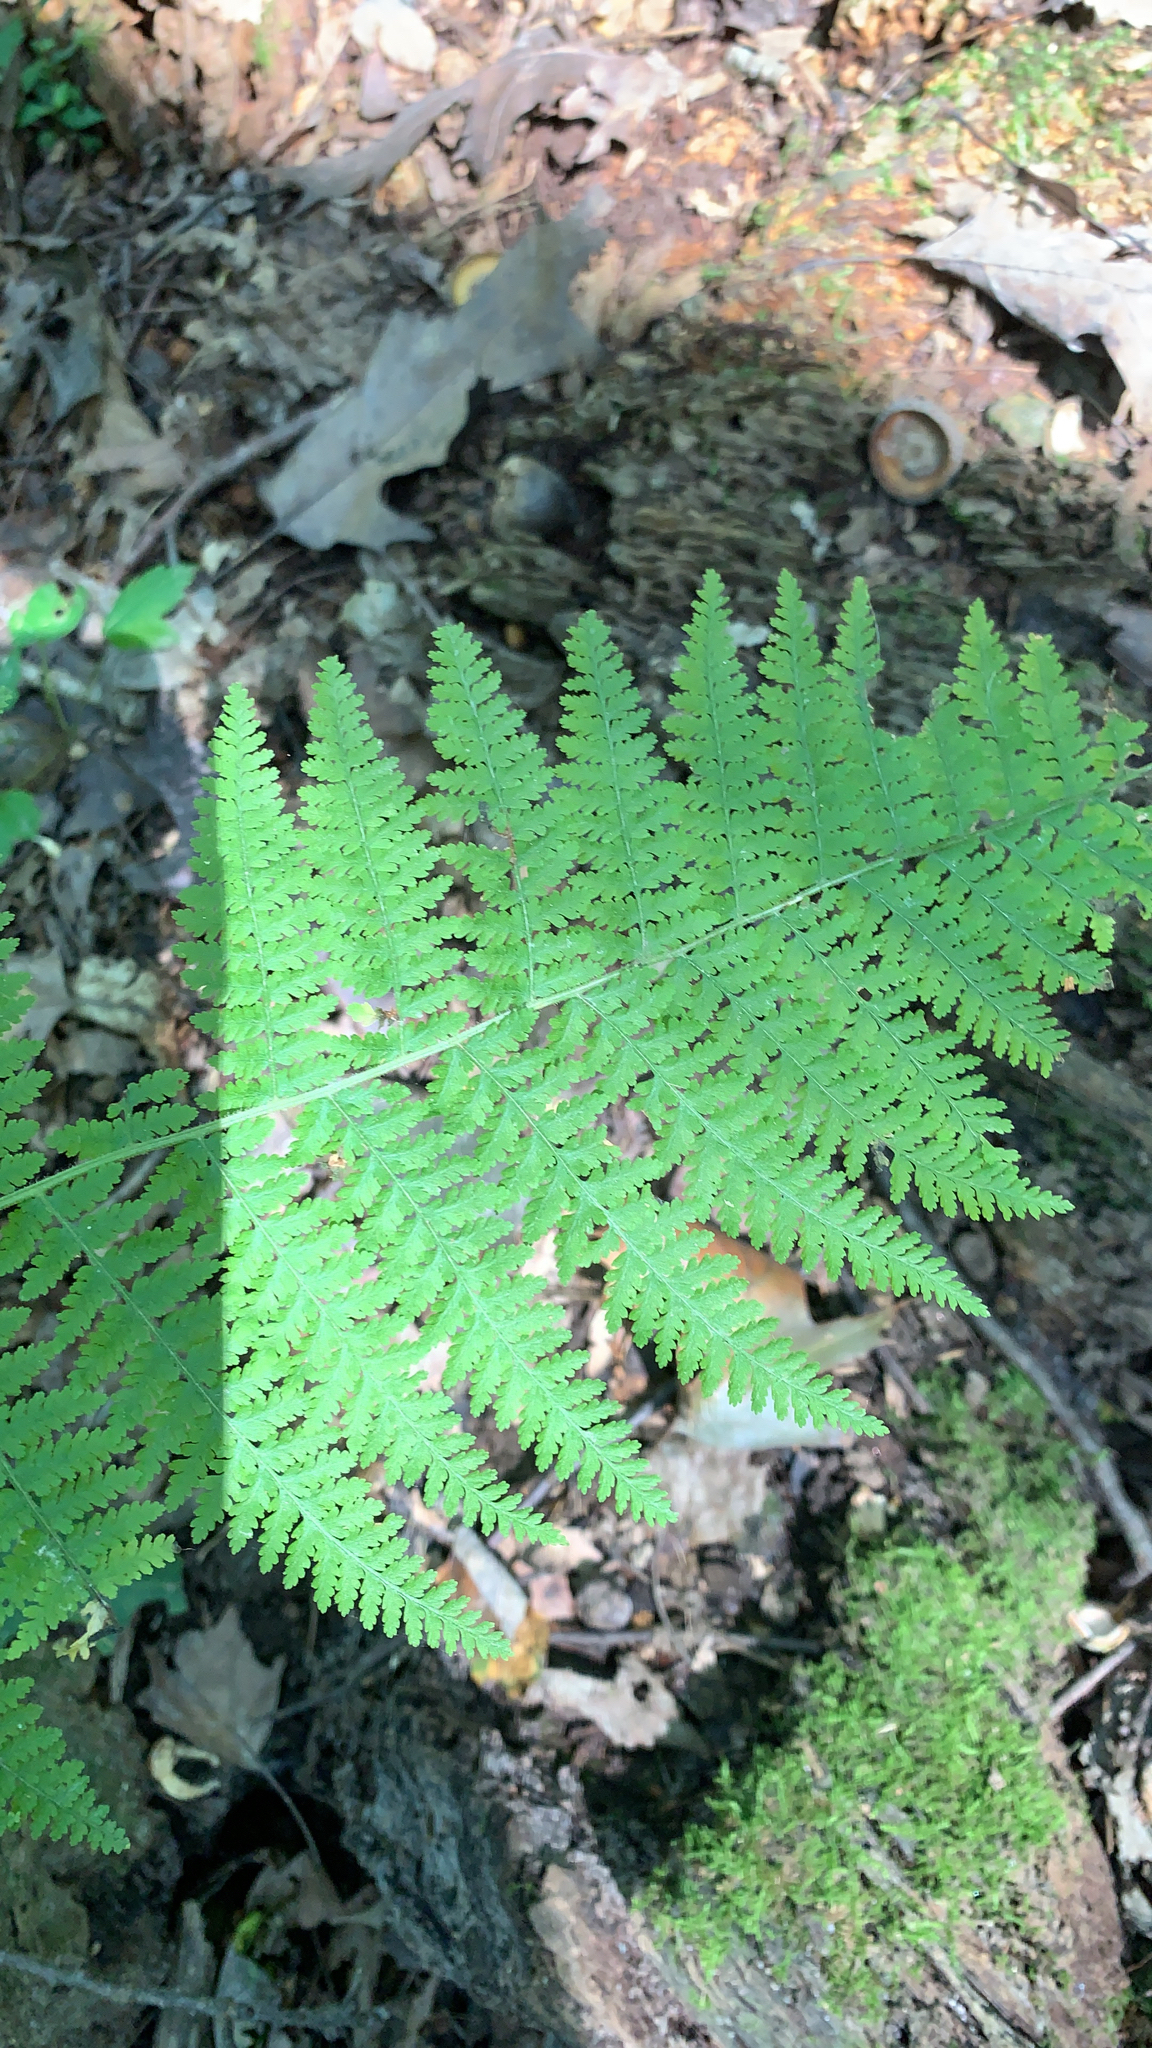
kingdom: Plantae
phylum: Tracheophyta
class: Polypodiopsida
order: Polypodiales
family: Dennstaedtiaceae
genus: Sitobolium
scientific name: Sitobolium punctilobum
